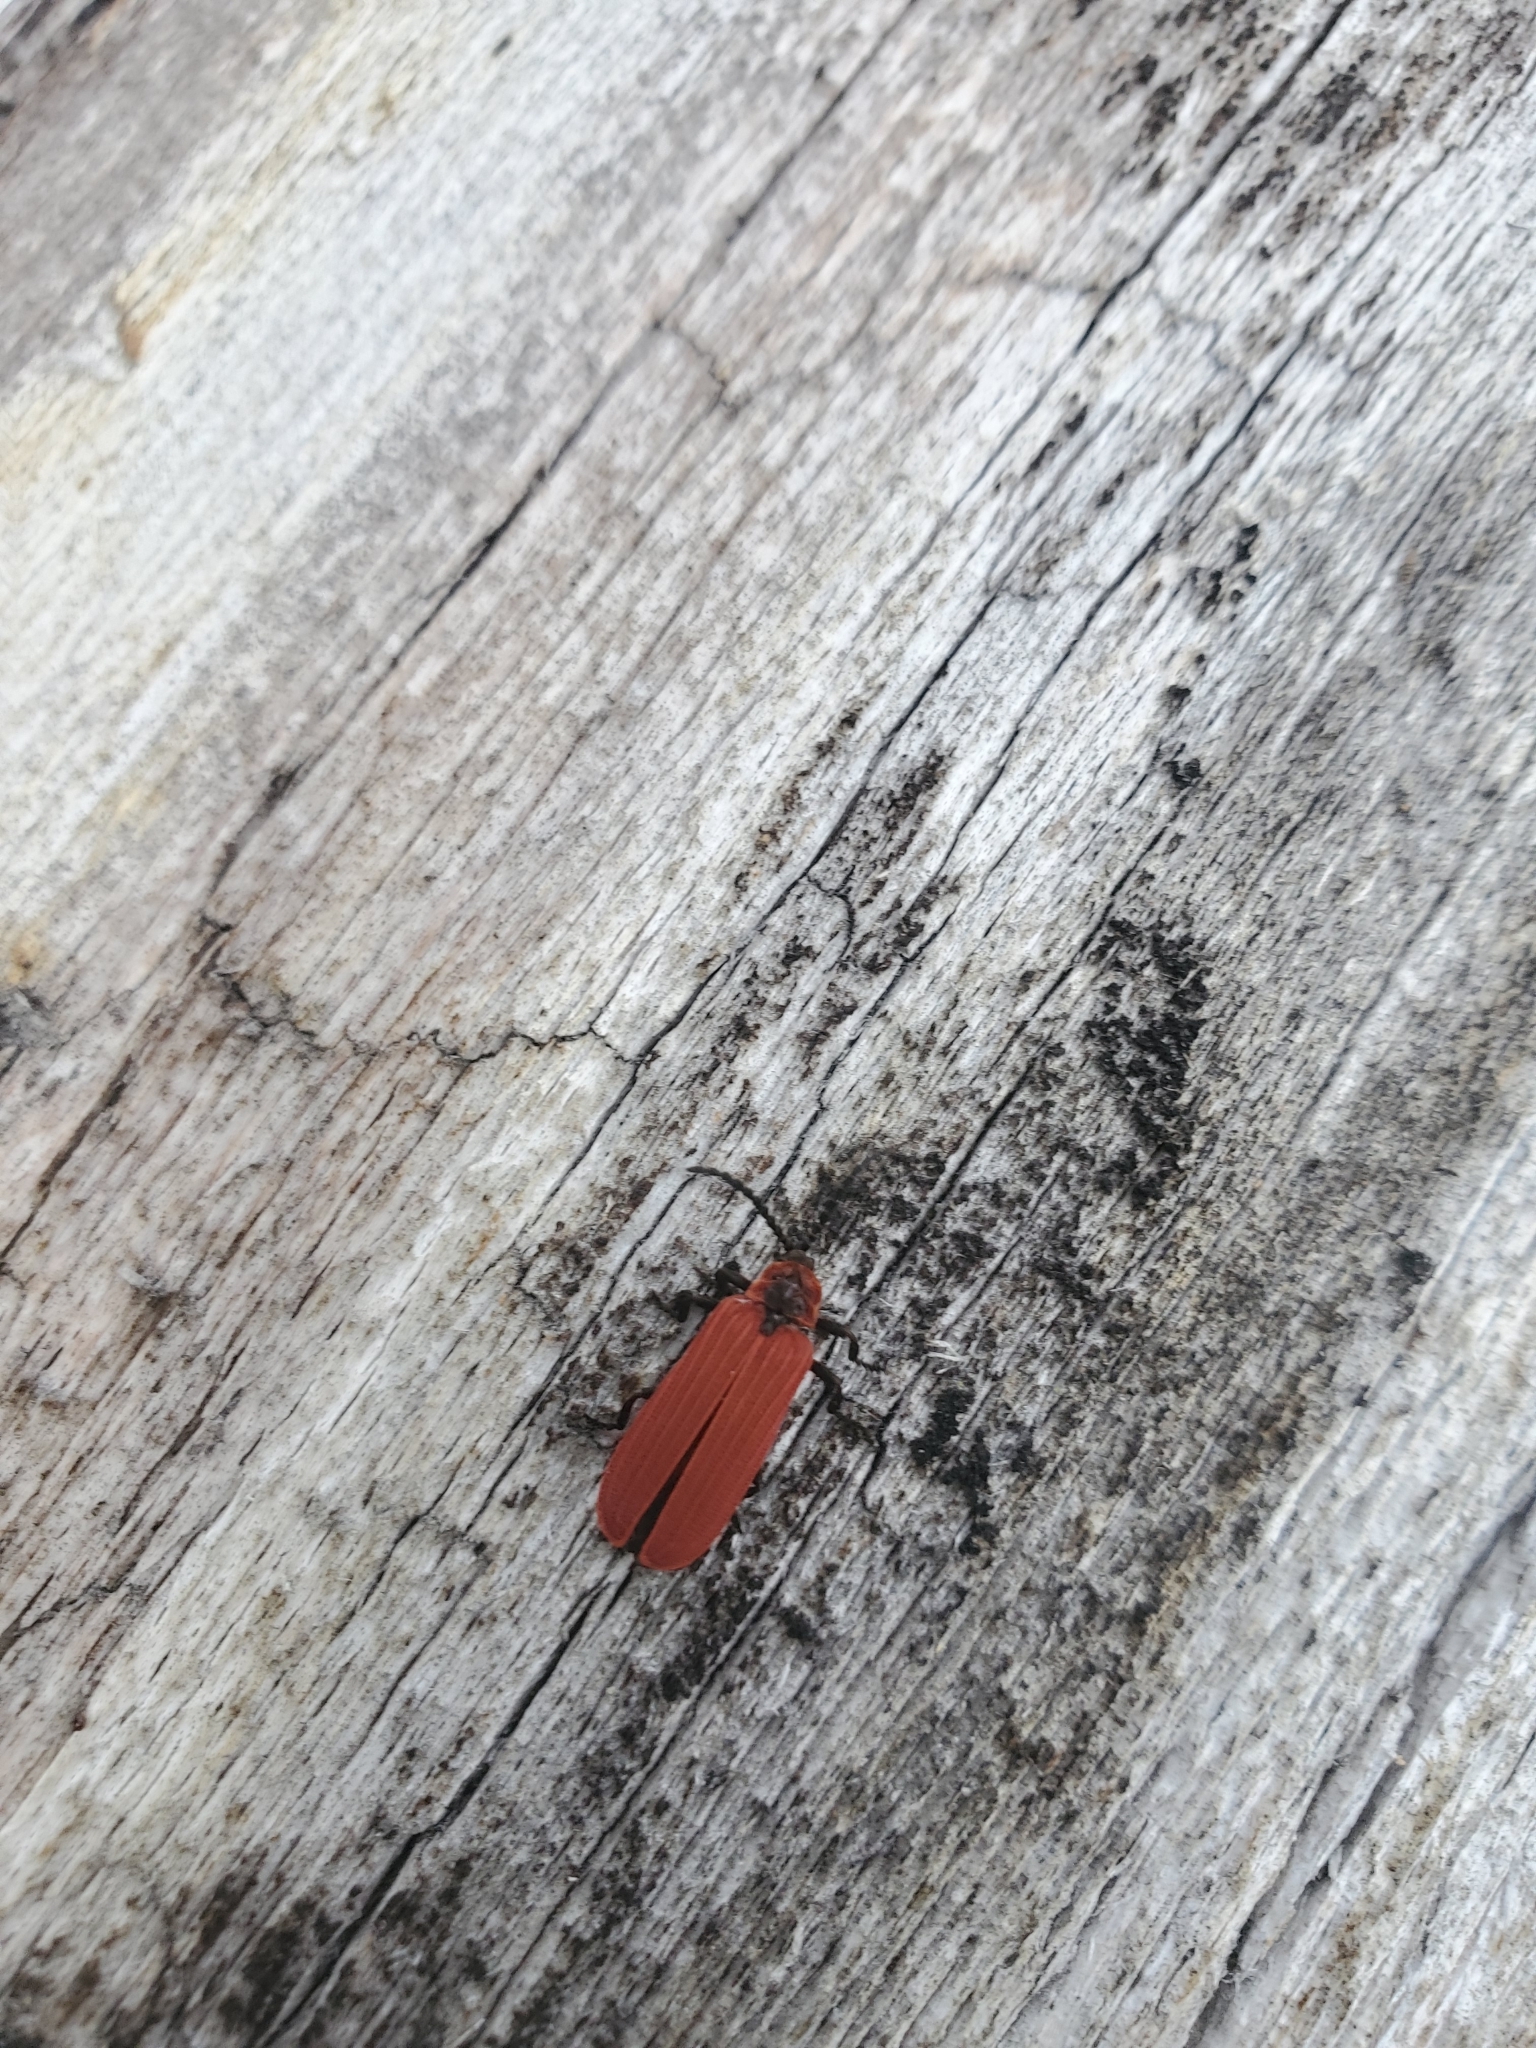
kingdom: Animalia
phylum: Arthropoda
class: Insecta
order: Coleoptera
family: Lycidae
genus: Dictyoptera
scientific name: Dictyoptera aurora
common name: Golden net-winged beetle
